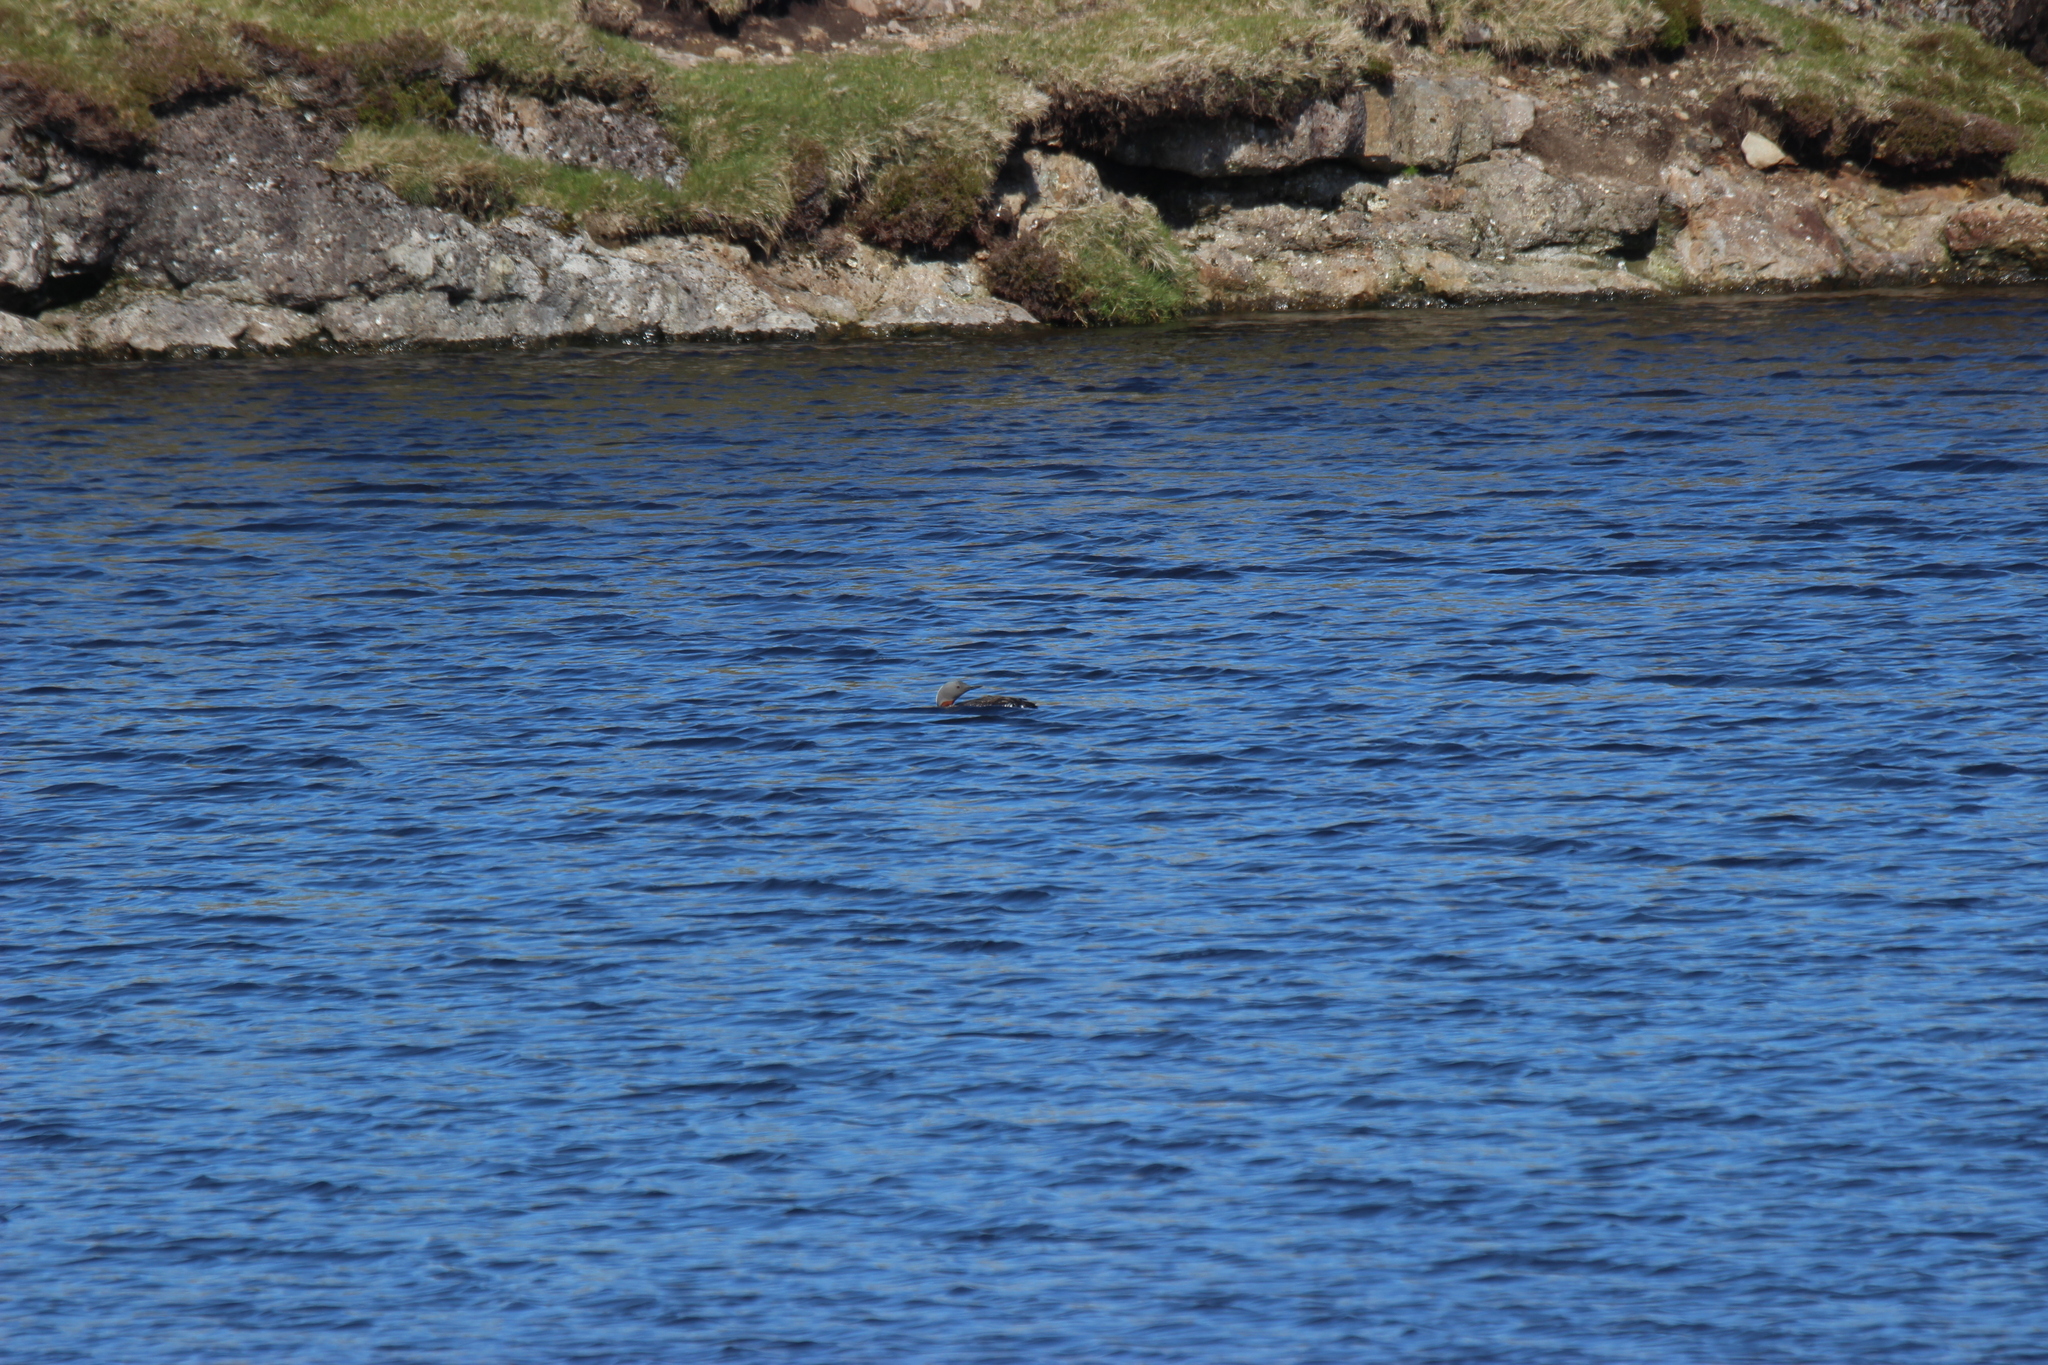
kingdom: Animalia
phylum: Chordata
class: Aves
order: Gaviiformes
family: Gaviidae
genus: Gavia
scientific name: Gavia stellata
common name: Red-throated loon
